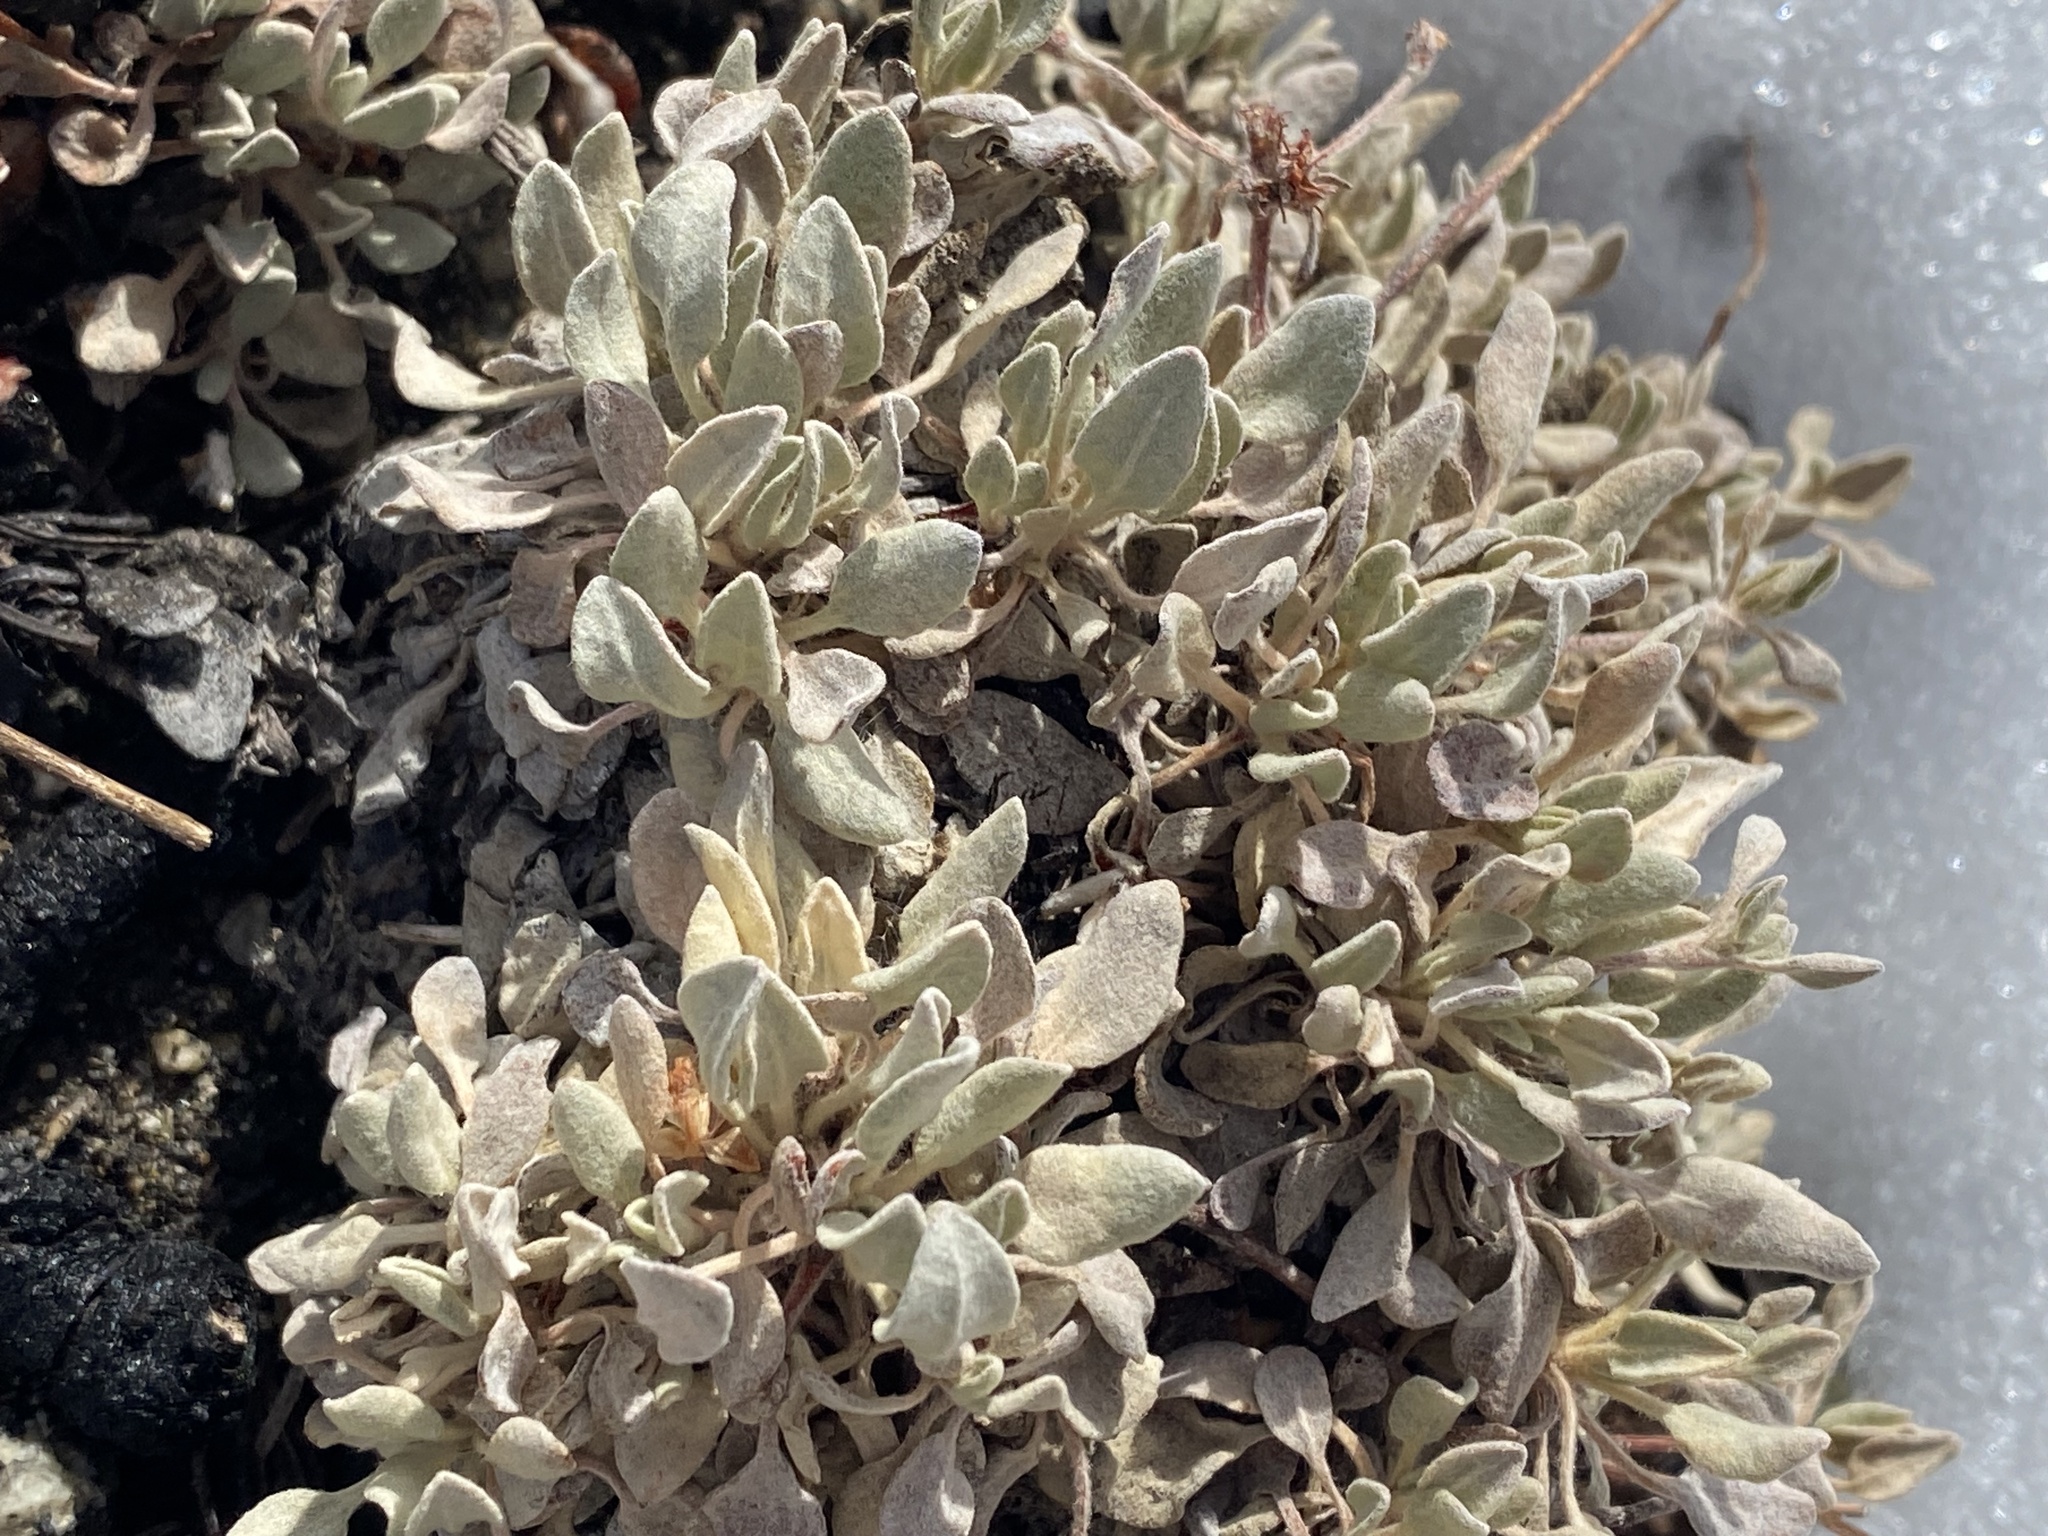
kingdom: Plantae
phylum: Tracheophyta
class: Magnoliopsida
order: Caryophyllales
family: Polygonaceae
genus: Eriogonum
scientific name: Eriogonum incanum
